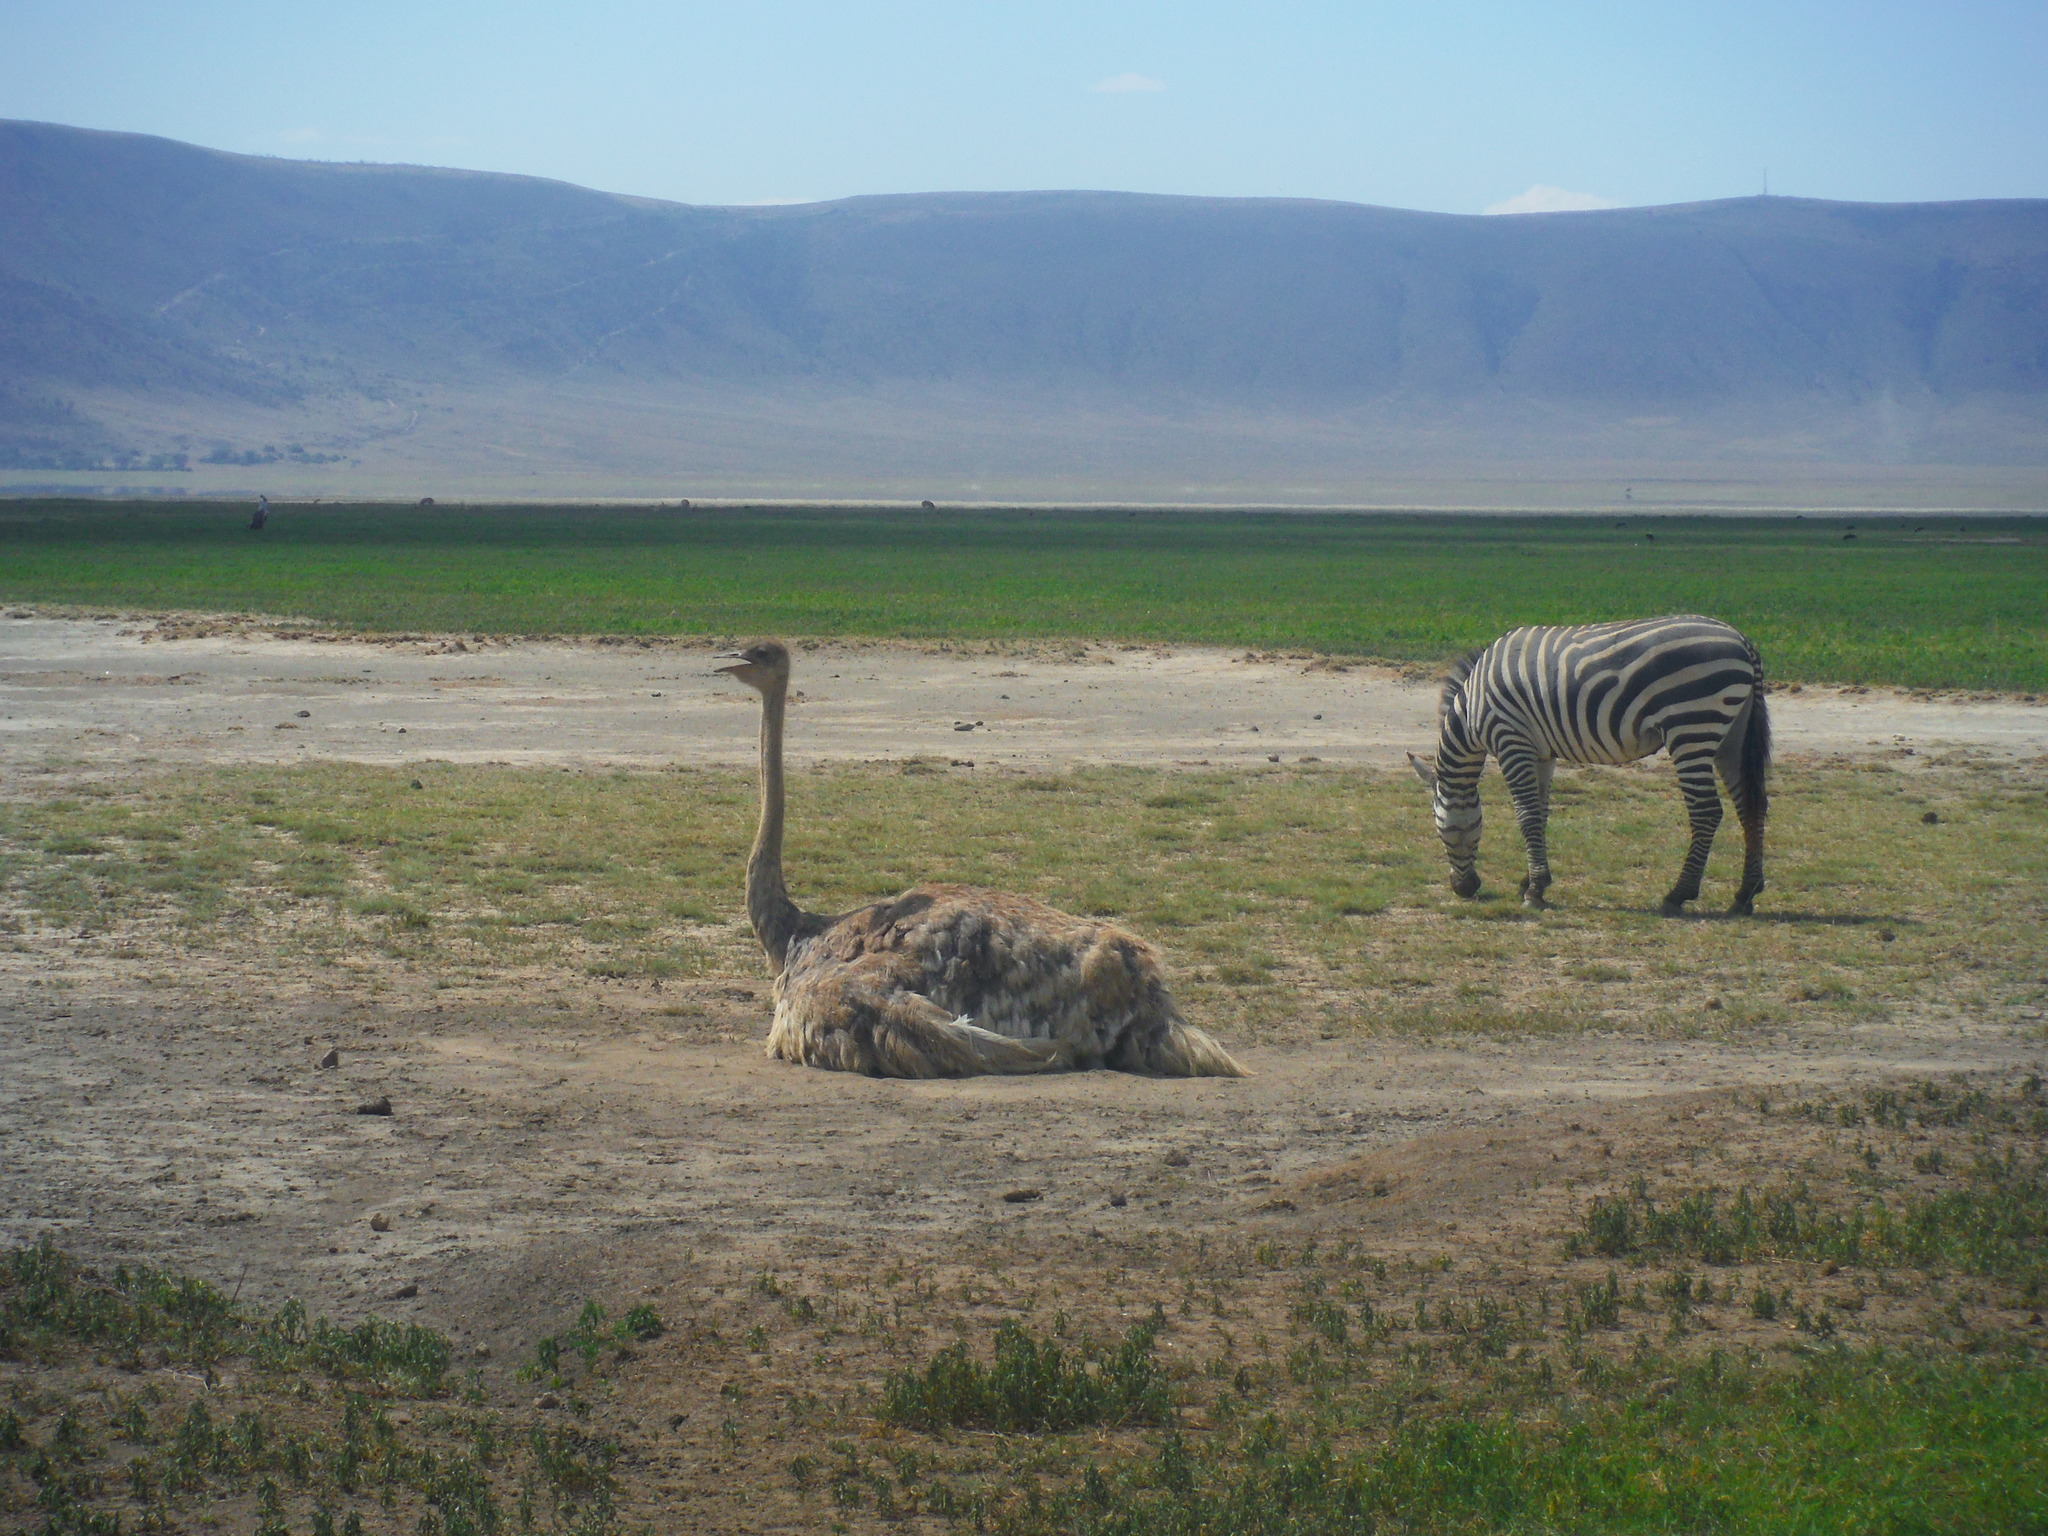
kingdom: Animalia
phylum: Chordata
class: Aves
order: Struthioniformes
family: Struthionidae
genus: Struthio
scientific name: Struthio camelus
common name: Common ostrich
